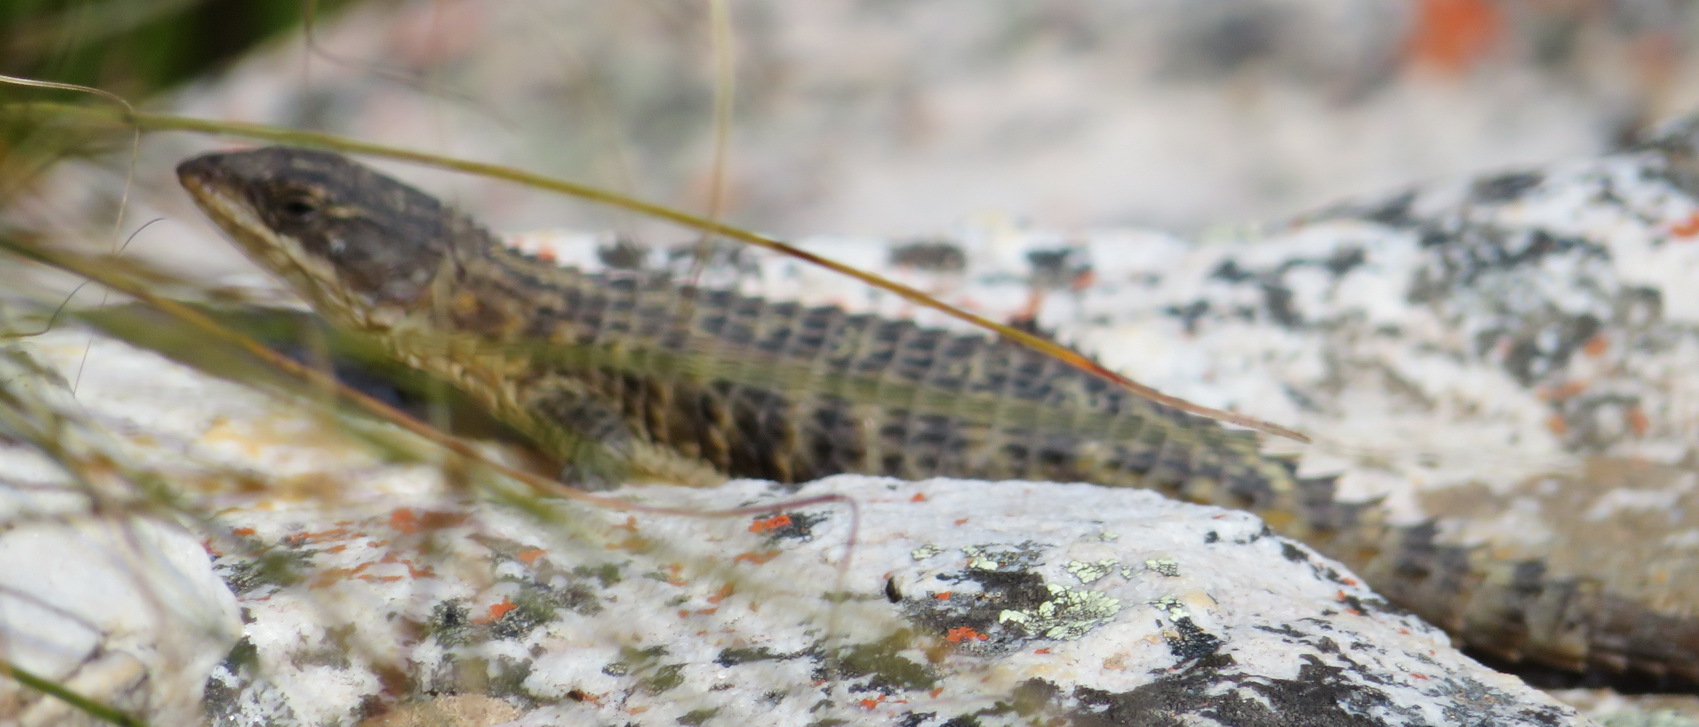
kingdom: Animalia
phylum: Chordata
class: Squamata
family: Cordylidae
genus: Cordylus
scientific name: Cordylus cordylus
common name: Cape girdled lizard
